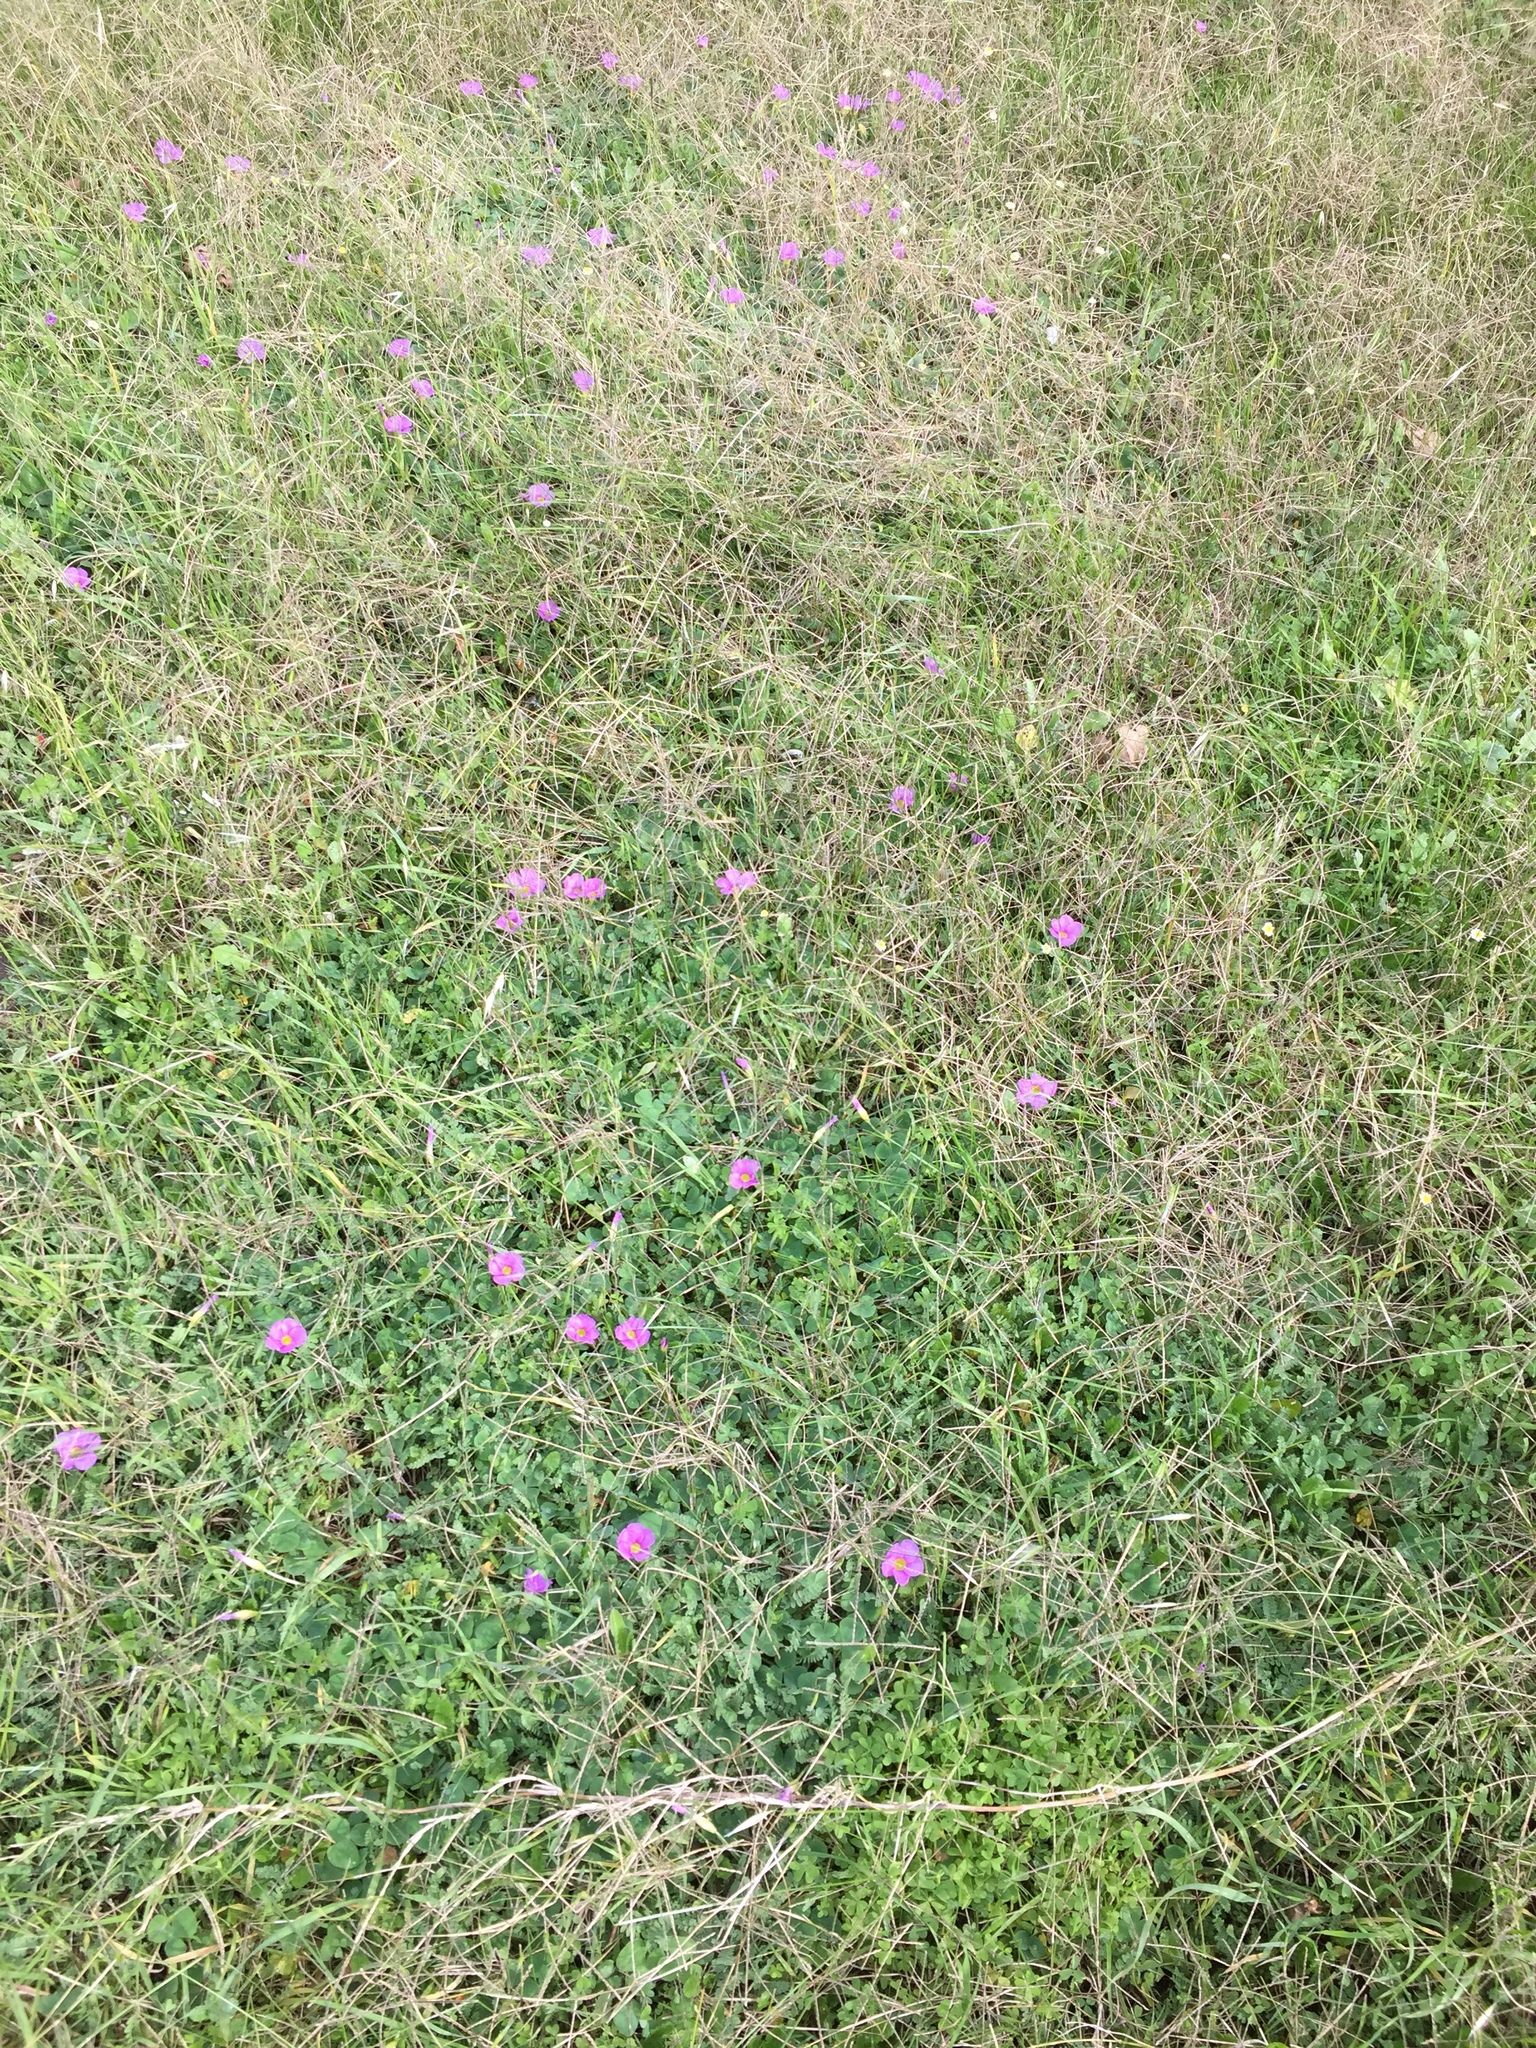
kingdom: Plantae
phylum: Tracheophyta
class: Magnoliopsida
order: Oxalidales
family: Oxalidaceae
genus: Oxalis
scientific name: Oxalis purpurea
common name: Purple woodsorrel
